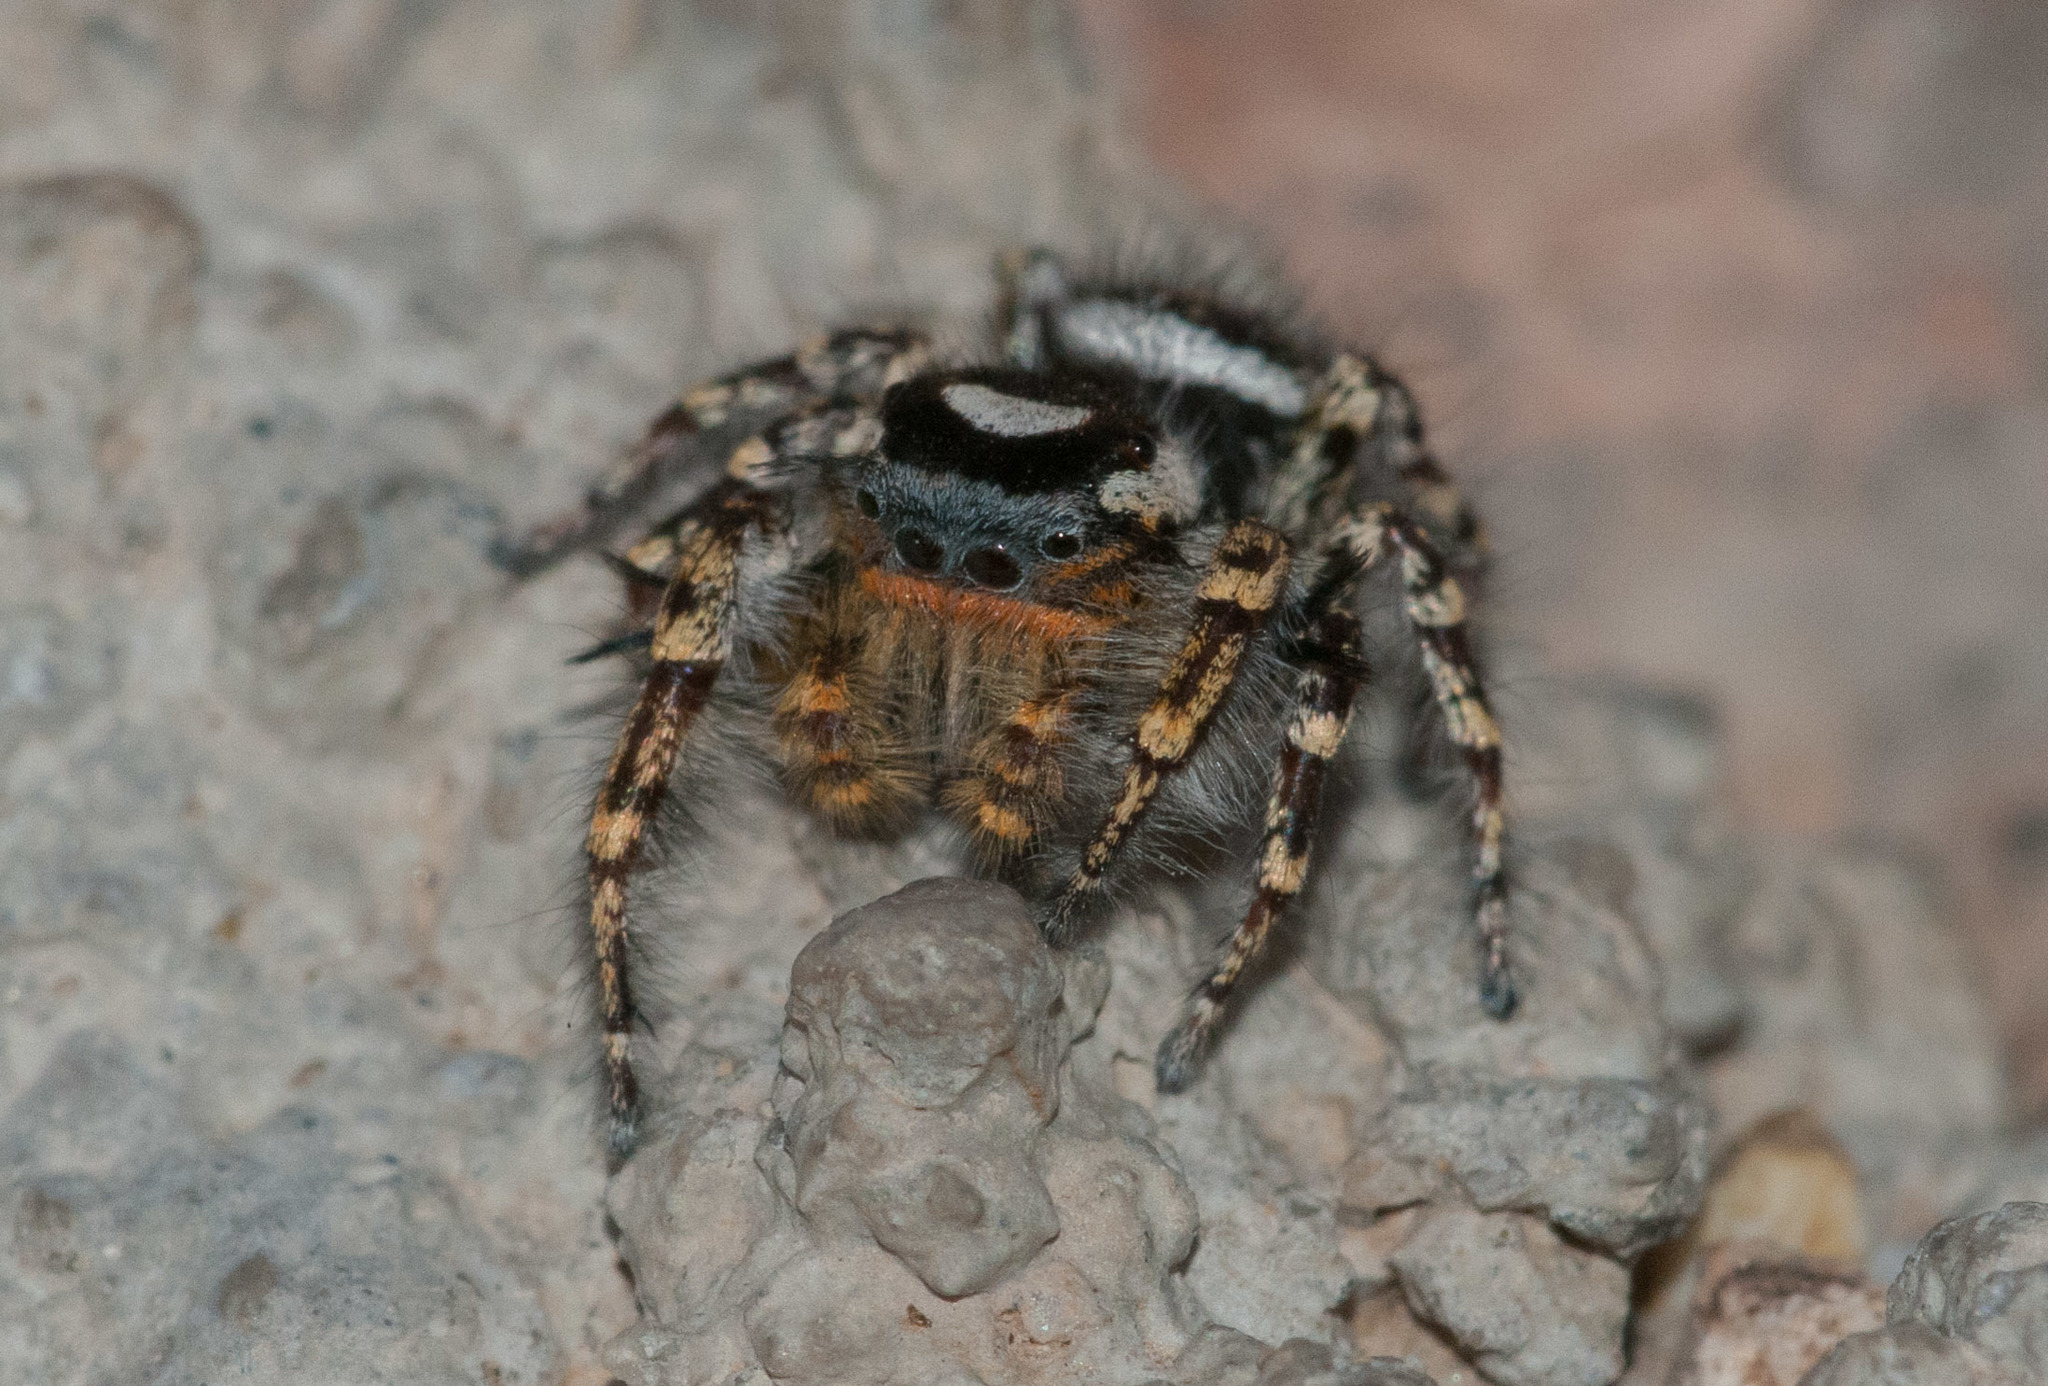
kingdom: Animalia
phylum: Arthropoda
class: Arachnida
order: Araneae
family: Salticidae
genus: Phidippus
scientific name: Phidippus comatus
